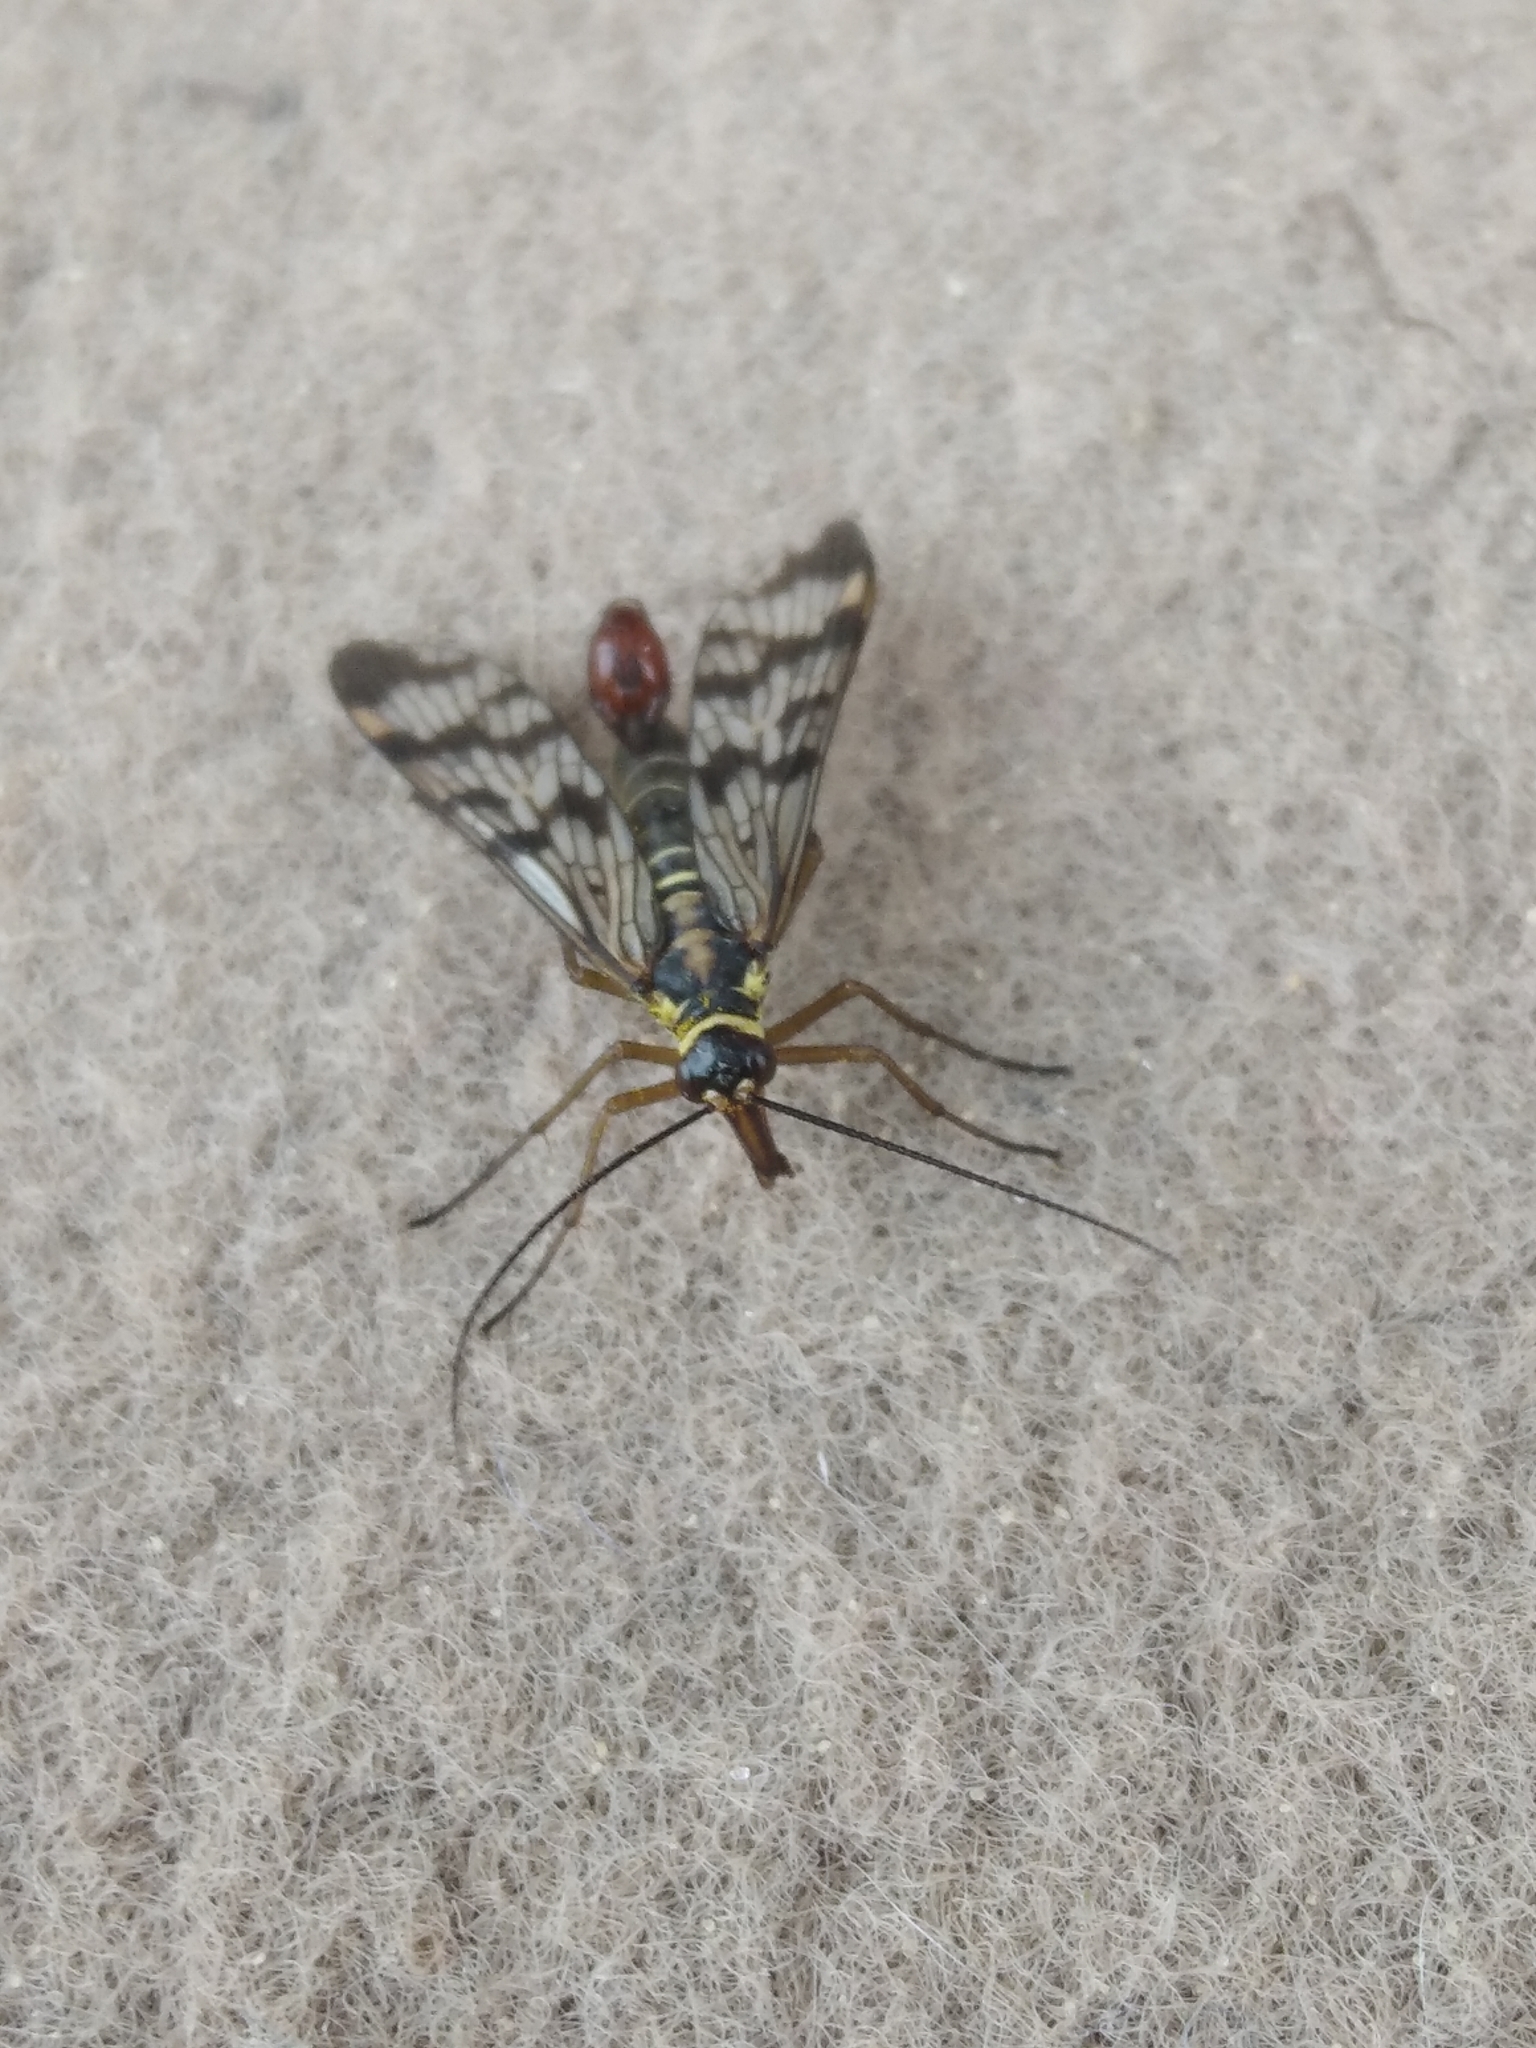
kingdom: Animalia
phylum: Arthropoda
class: Insecta
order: Mecoptera
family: Panorpidae
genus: Panorpa
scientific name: Panorpa communis
